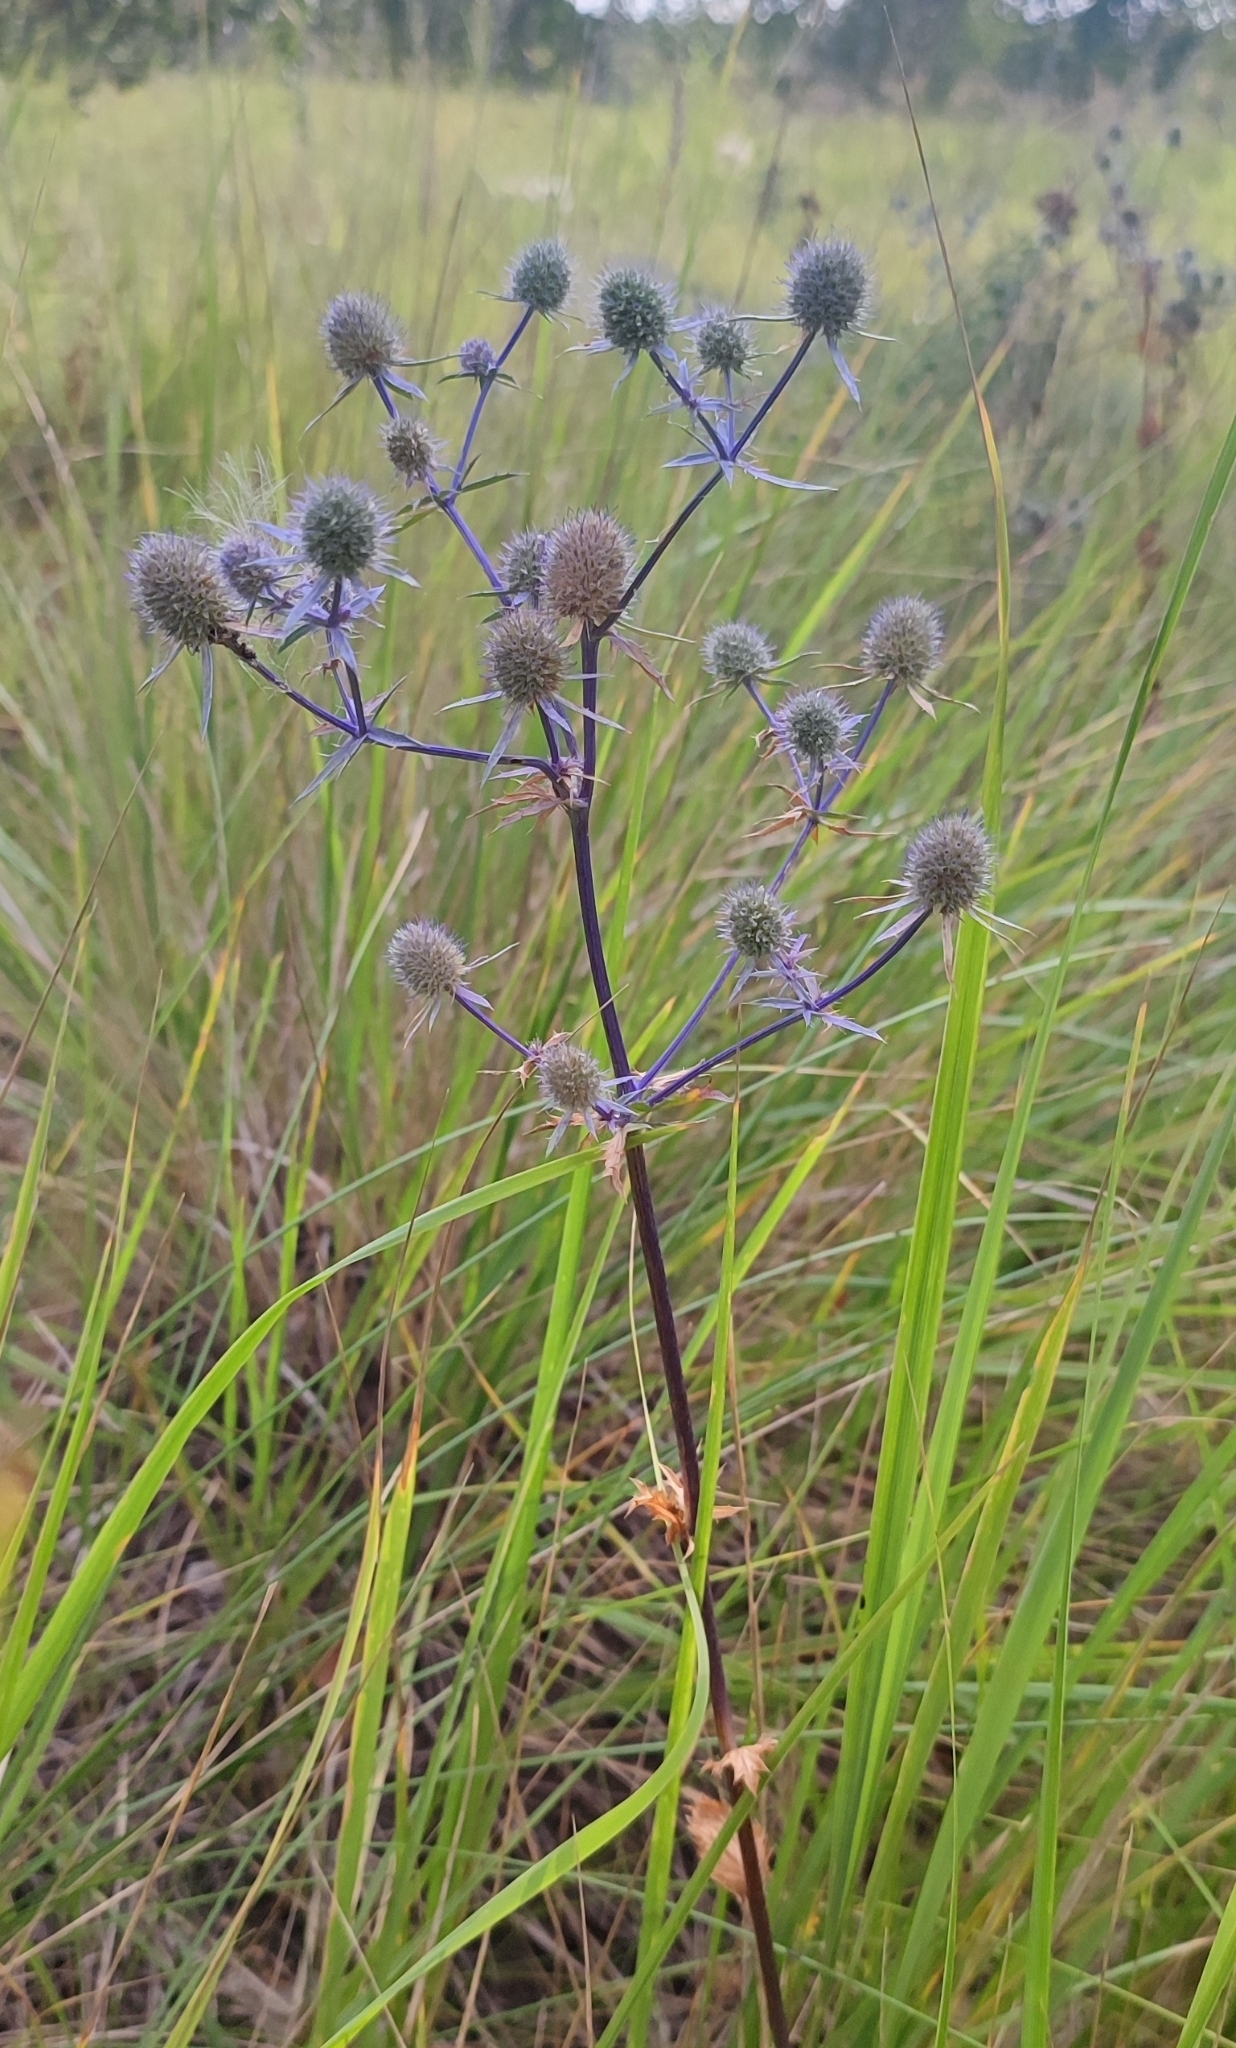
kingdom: Plantae
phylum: Tracheophyta
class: Magnoliopsida
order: Apiales
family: Apiaceae
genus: Eryngium
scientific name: Eryngium planum
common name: Blue eryngo
